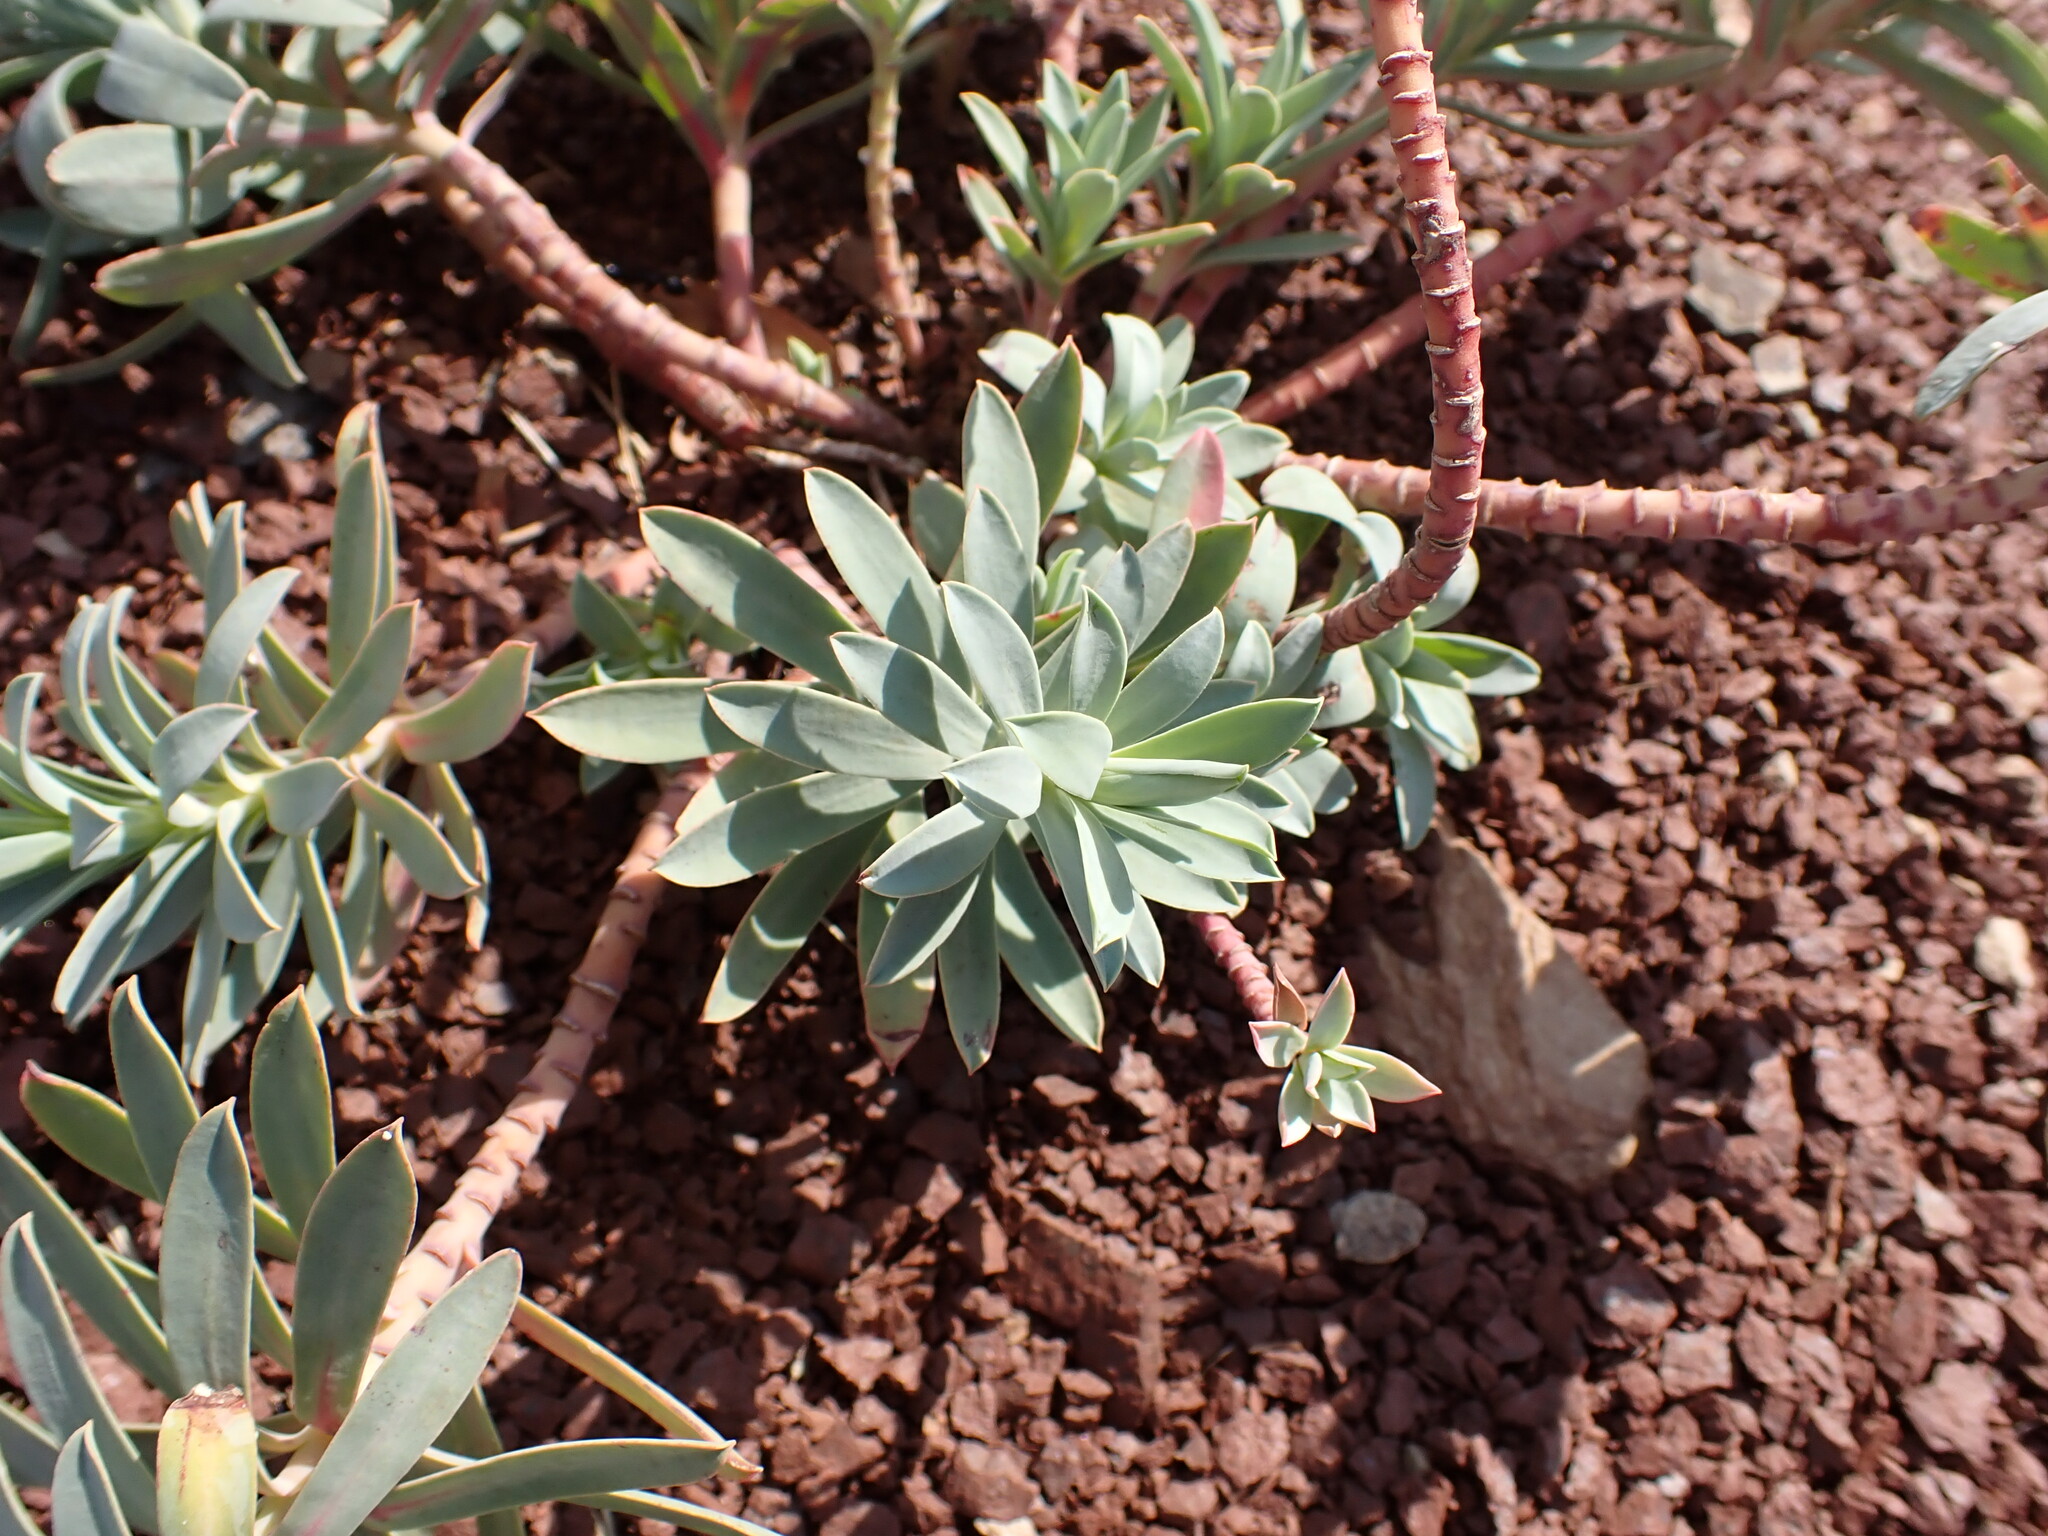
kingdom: Plantae
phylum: Tracheophyta
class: Magnoliopsida
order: Malpighiales
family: Euphorbiaceae
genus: Euphorbia
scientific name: Euphorbia nicaeensis
